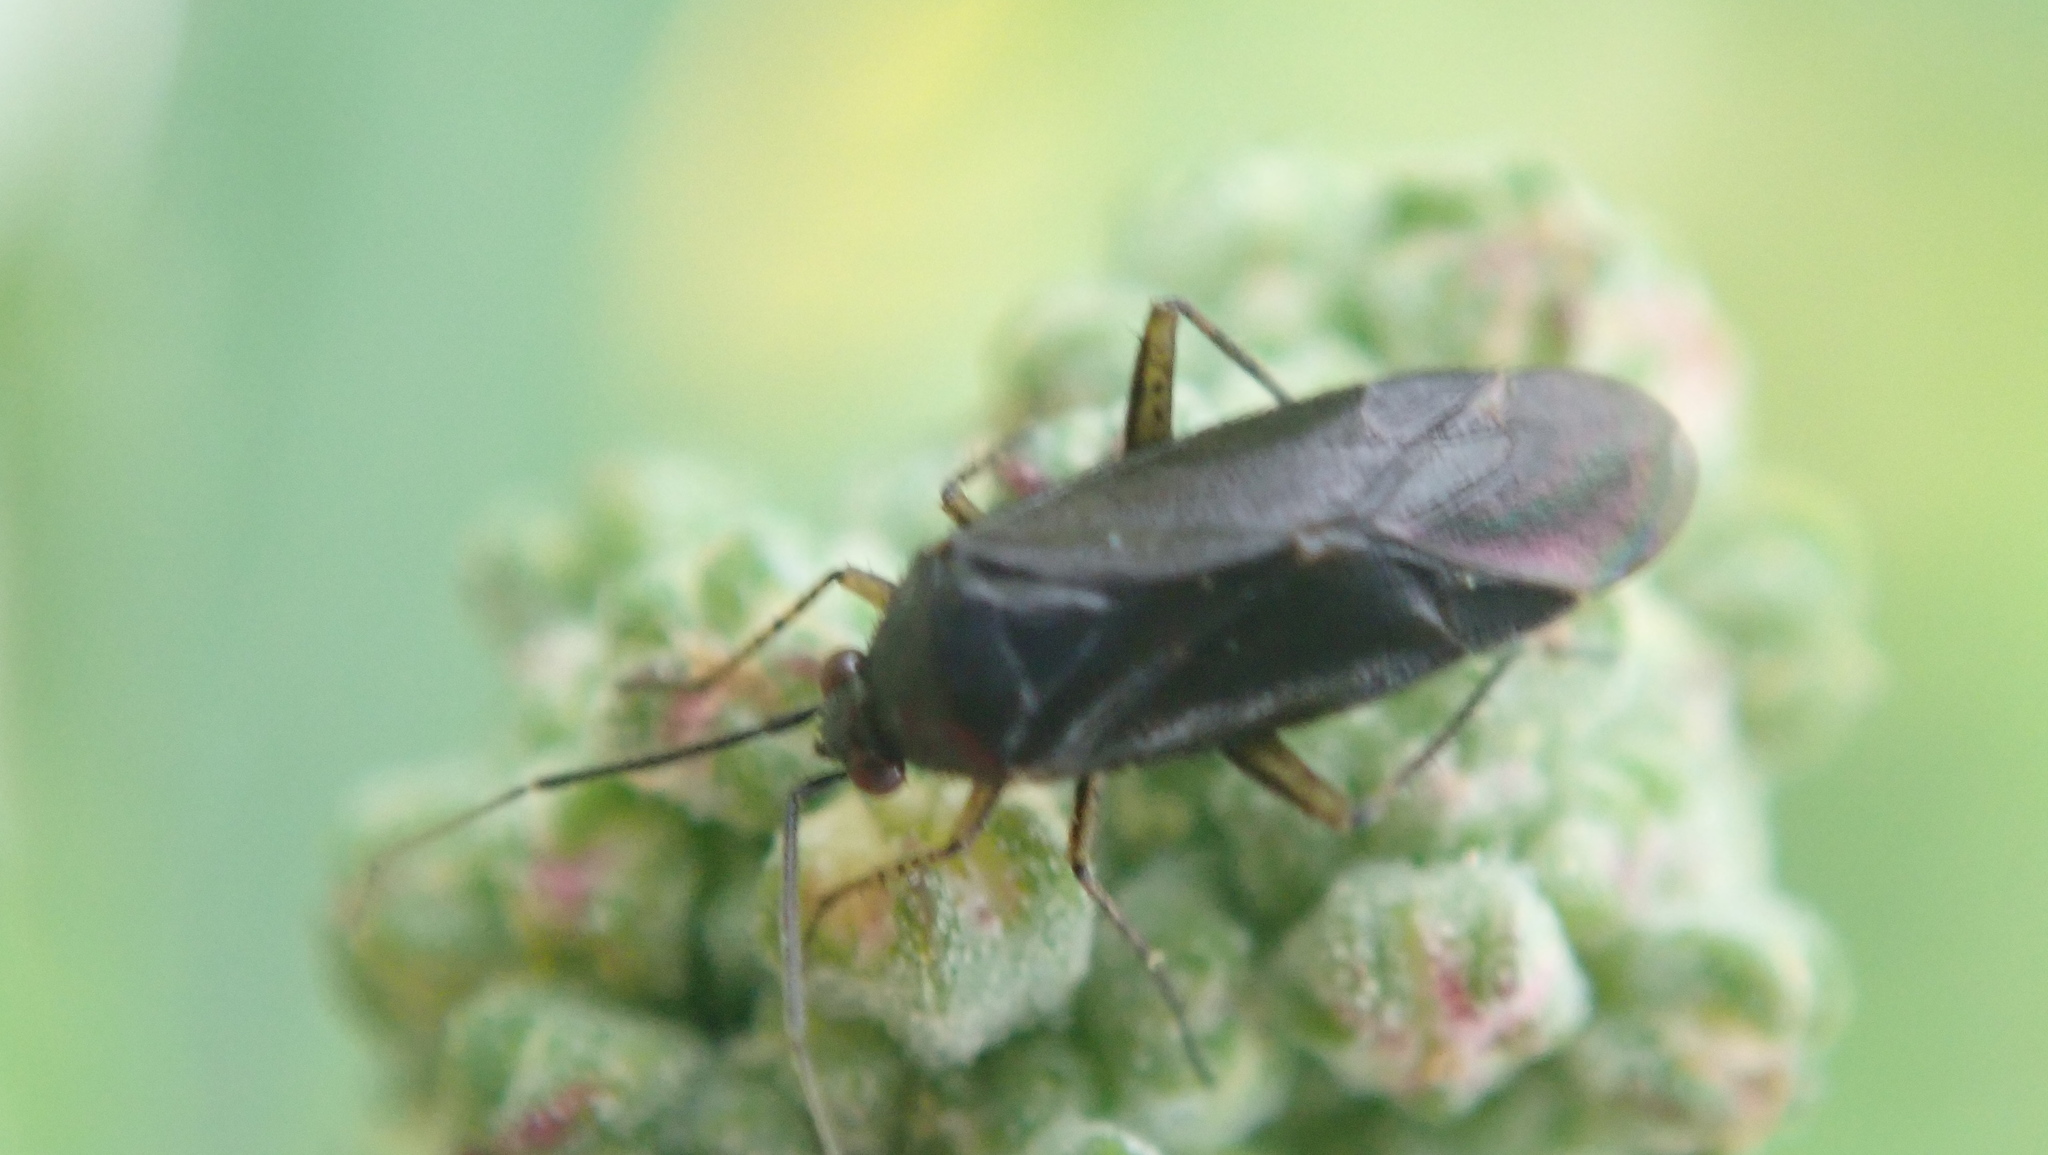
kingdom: Animalia
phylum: Arthropoda
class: Insecta
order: Hemiptera
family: Miridae
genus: Plagiognathus
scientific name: Plagiognathus arbustorum
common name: Plant bug
